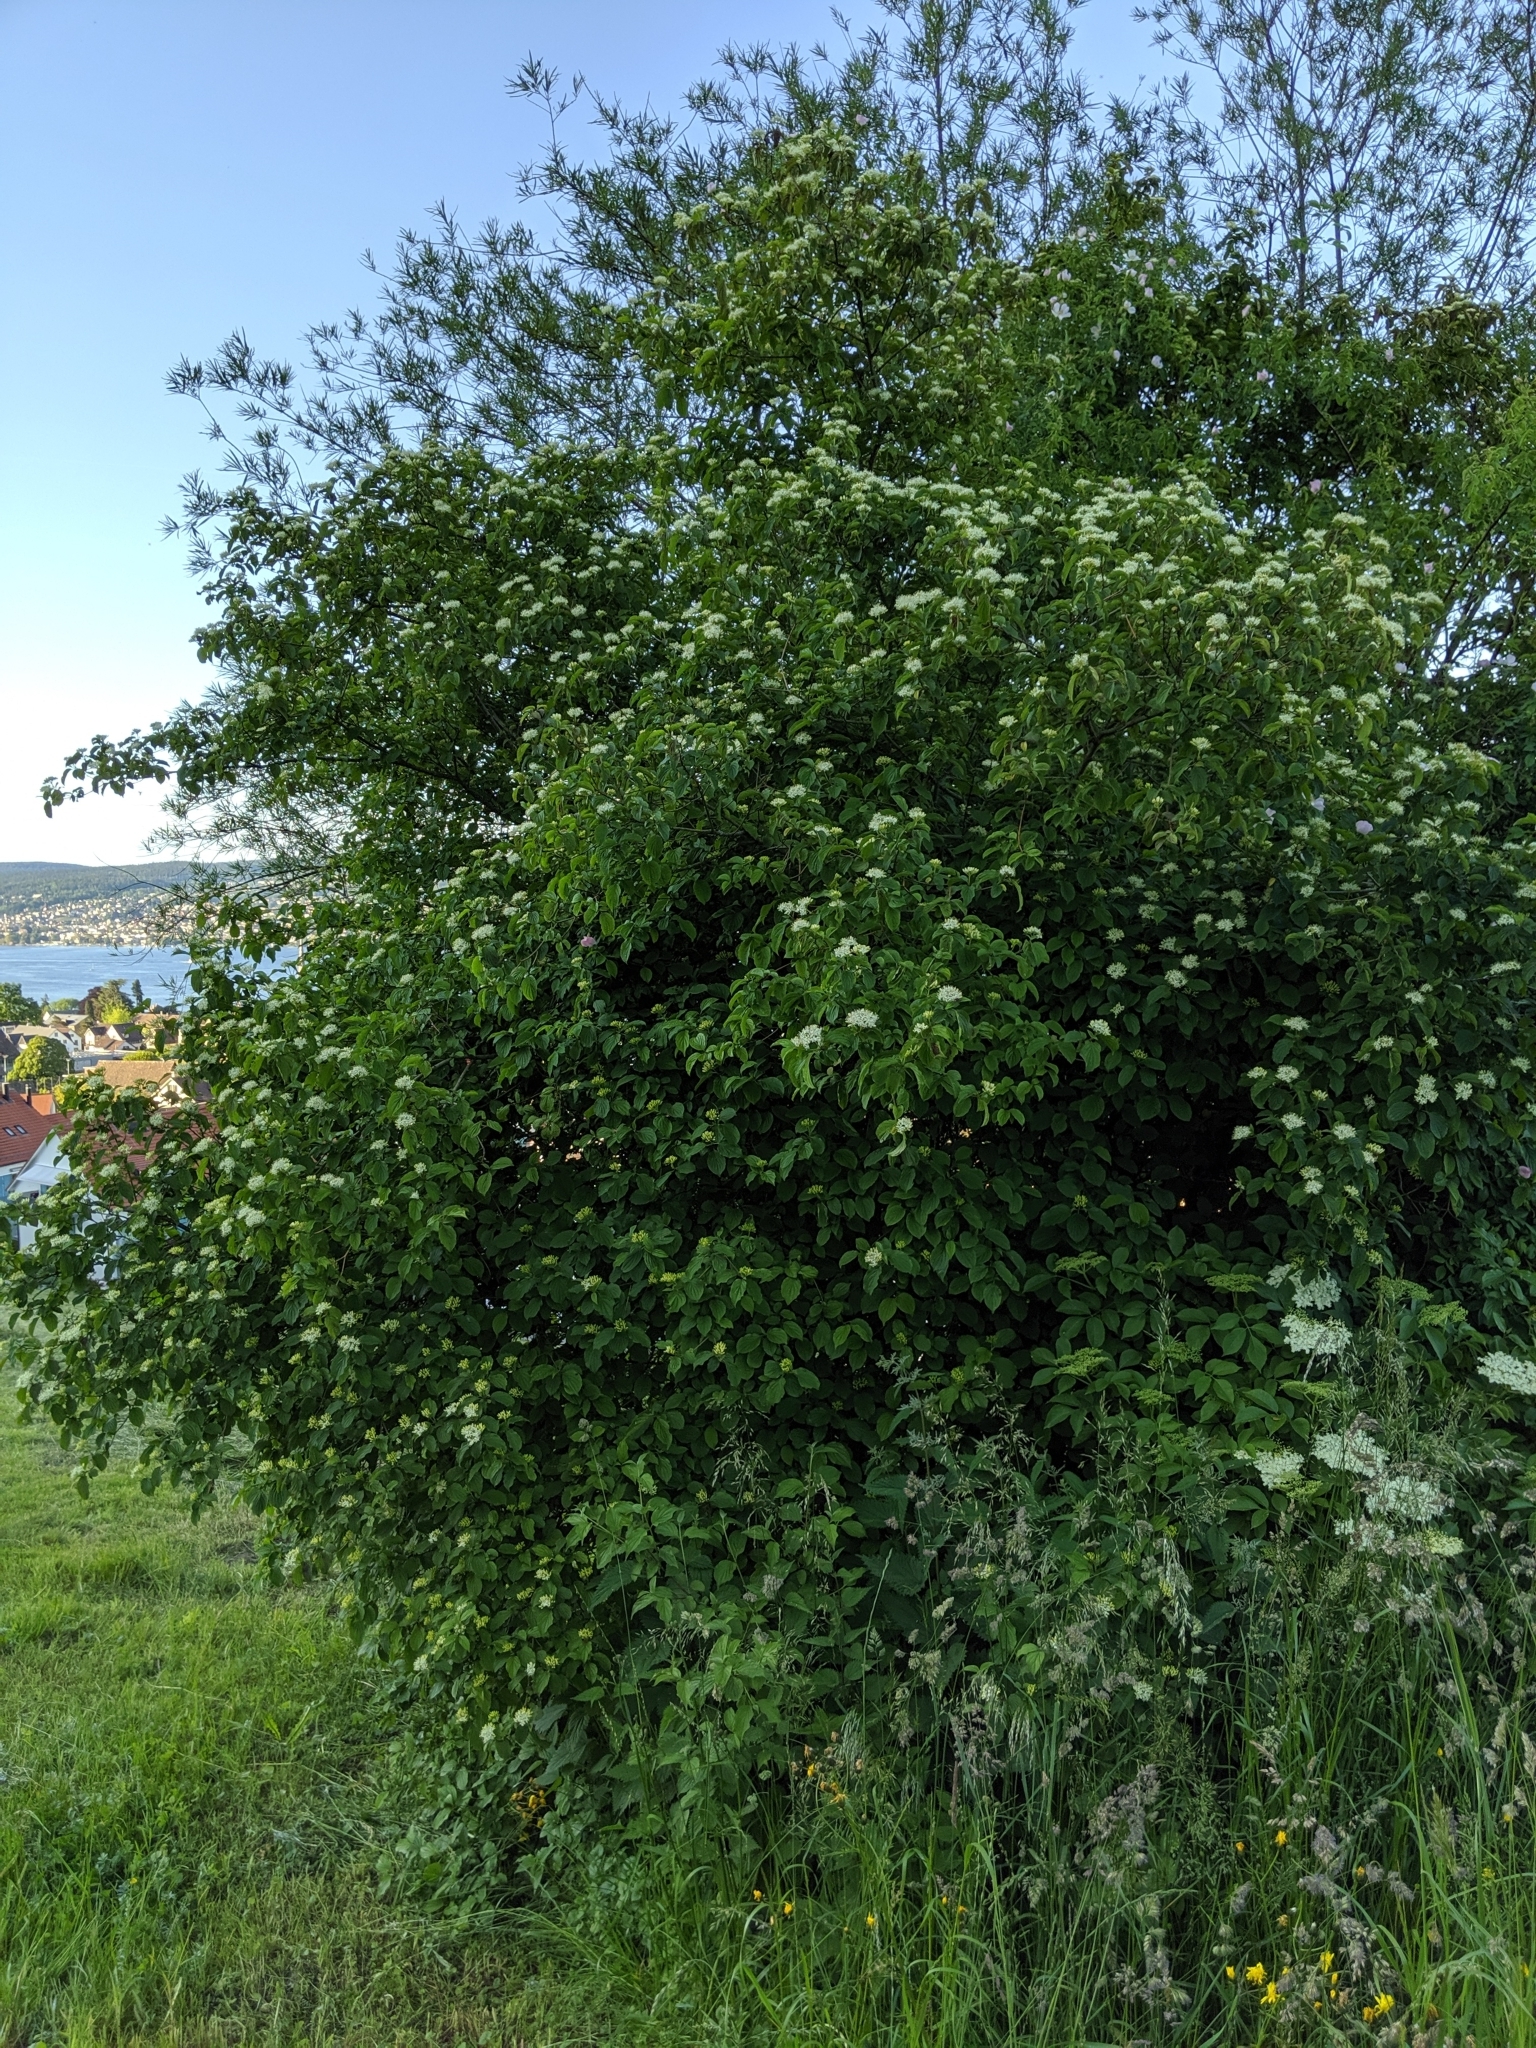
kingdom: Plantae
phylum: Tracheophyta
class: Magnoliopsida
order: Cornales
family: Cornaceae
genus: Cornus
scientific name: Cornus sanguinea
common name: Dogwood
